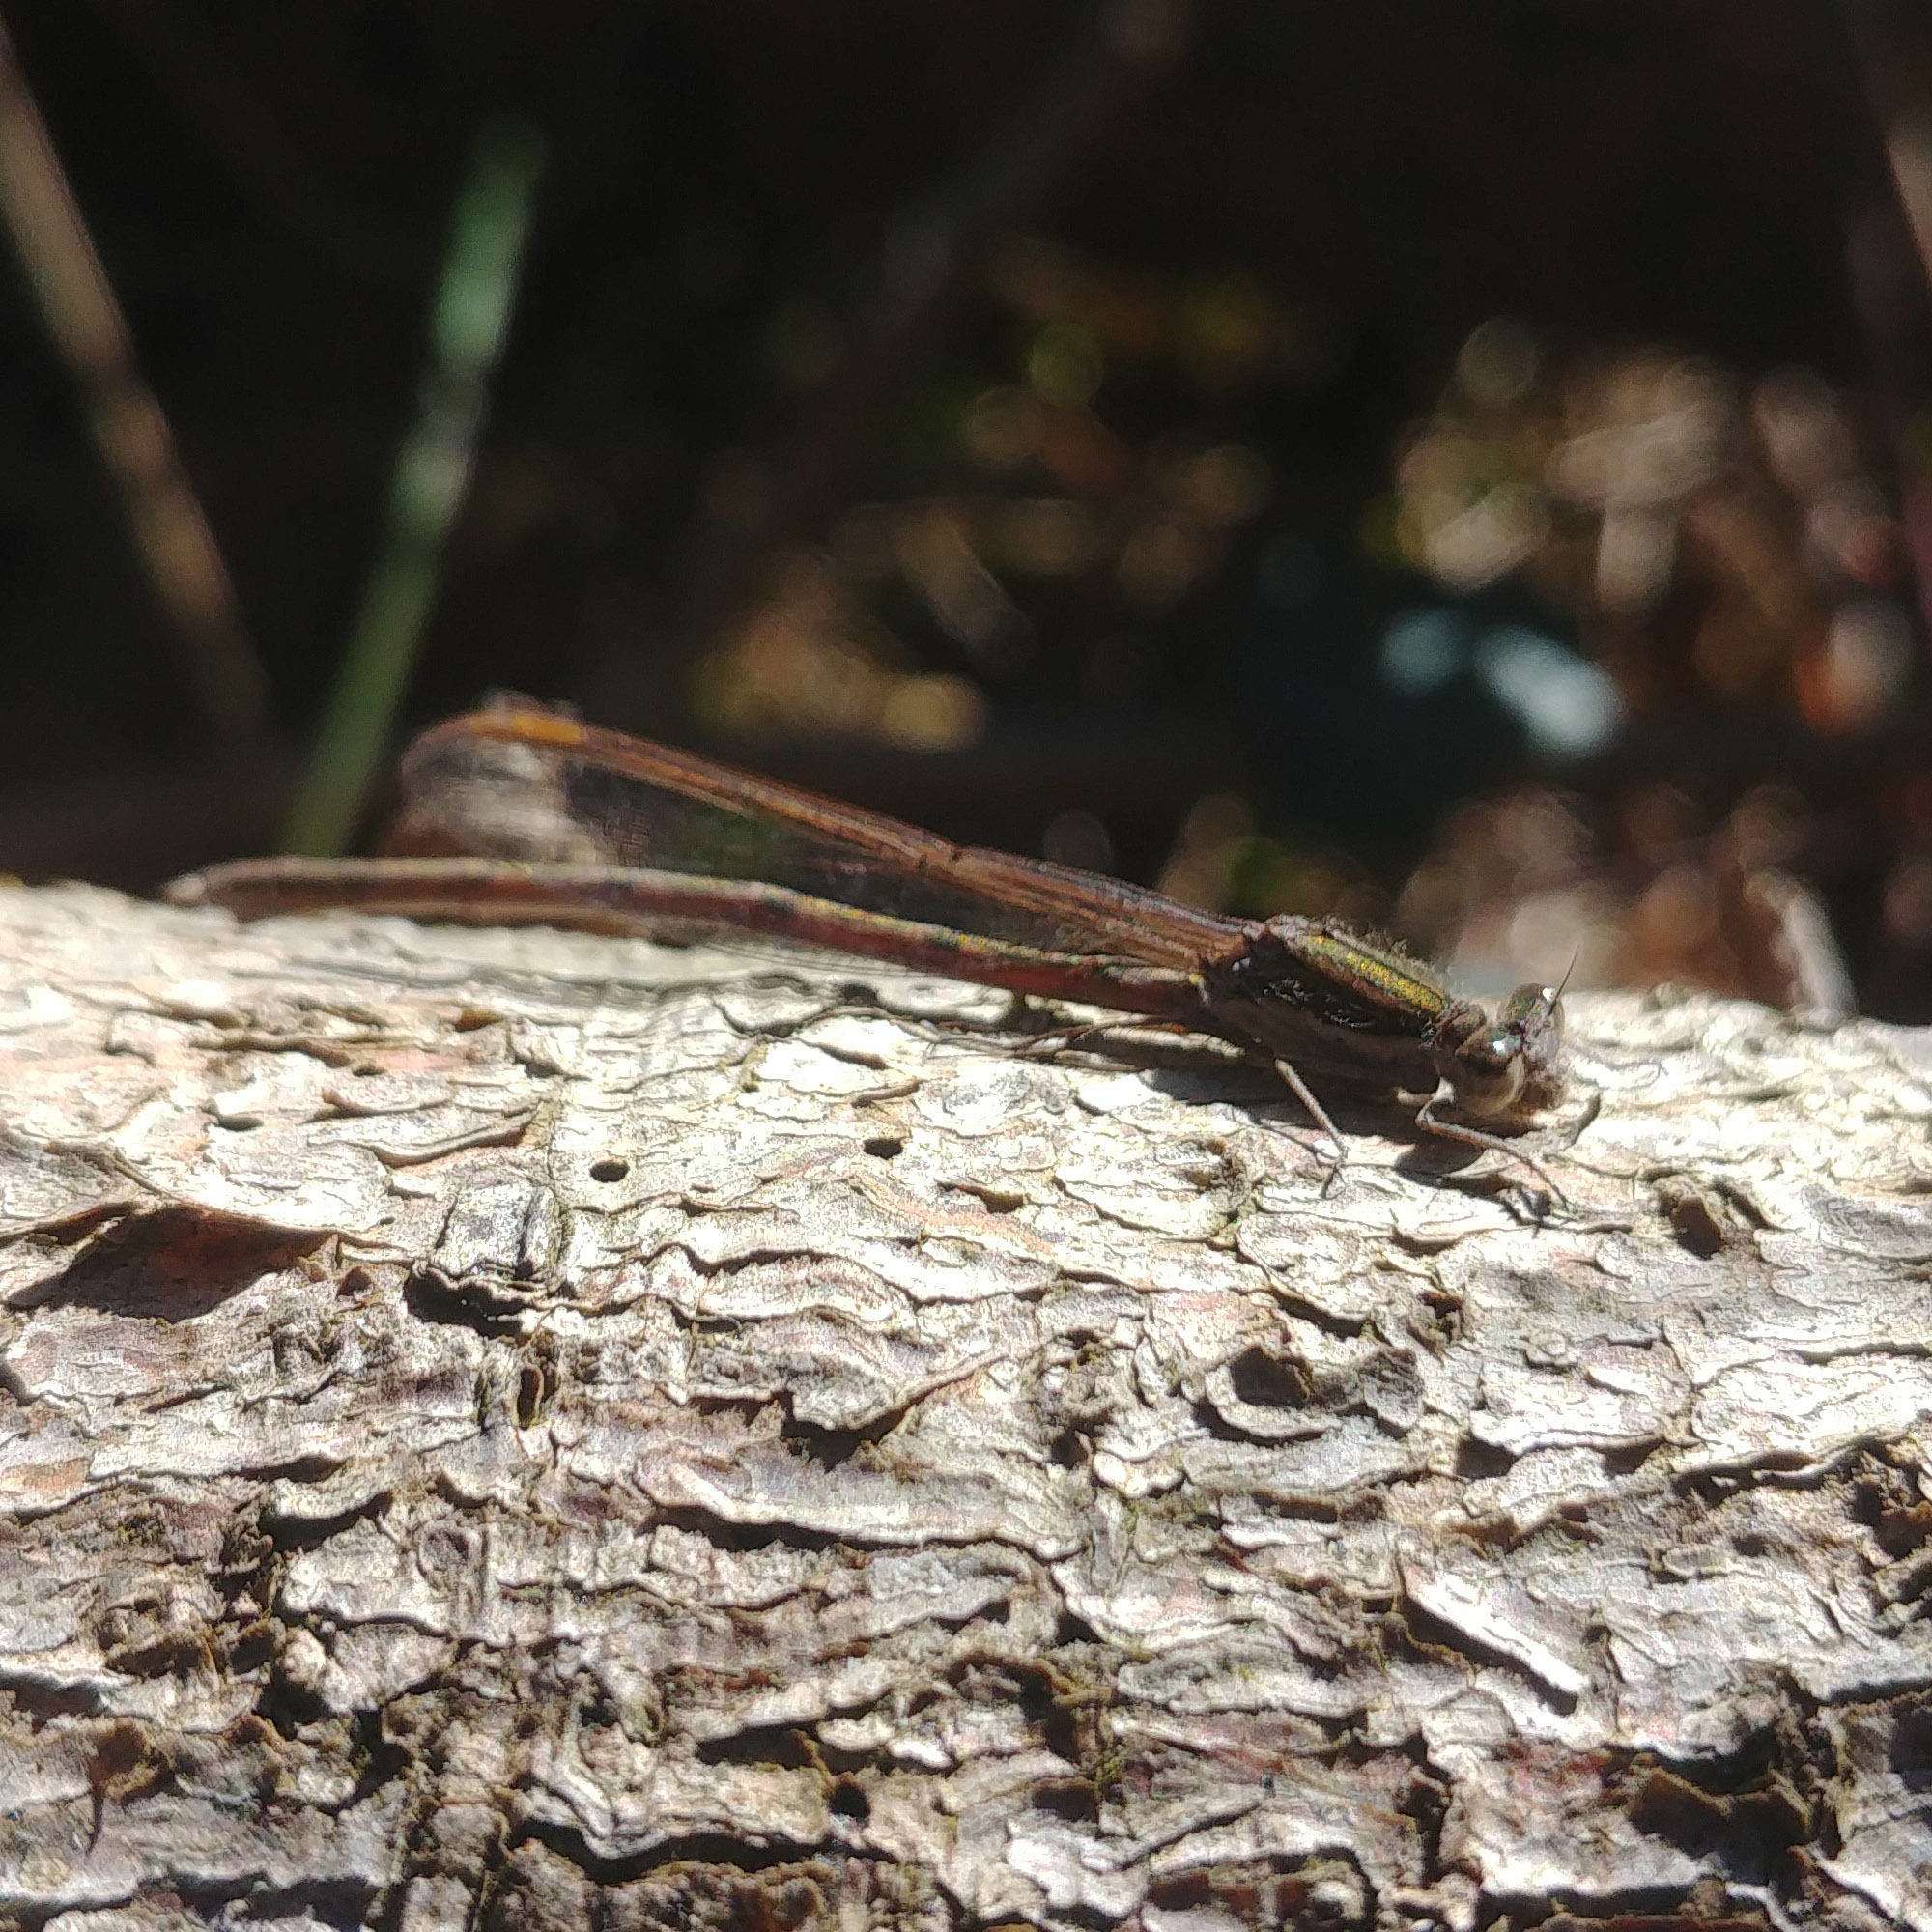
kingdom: Animalia
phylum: Arthropoda
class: Insecta
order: Odonata
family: Lestidae
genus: Sympecma
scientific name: Sympecma fusca
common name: Common winter damsel
